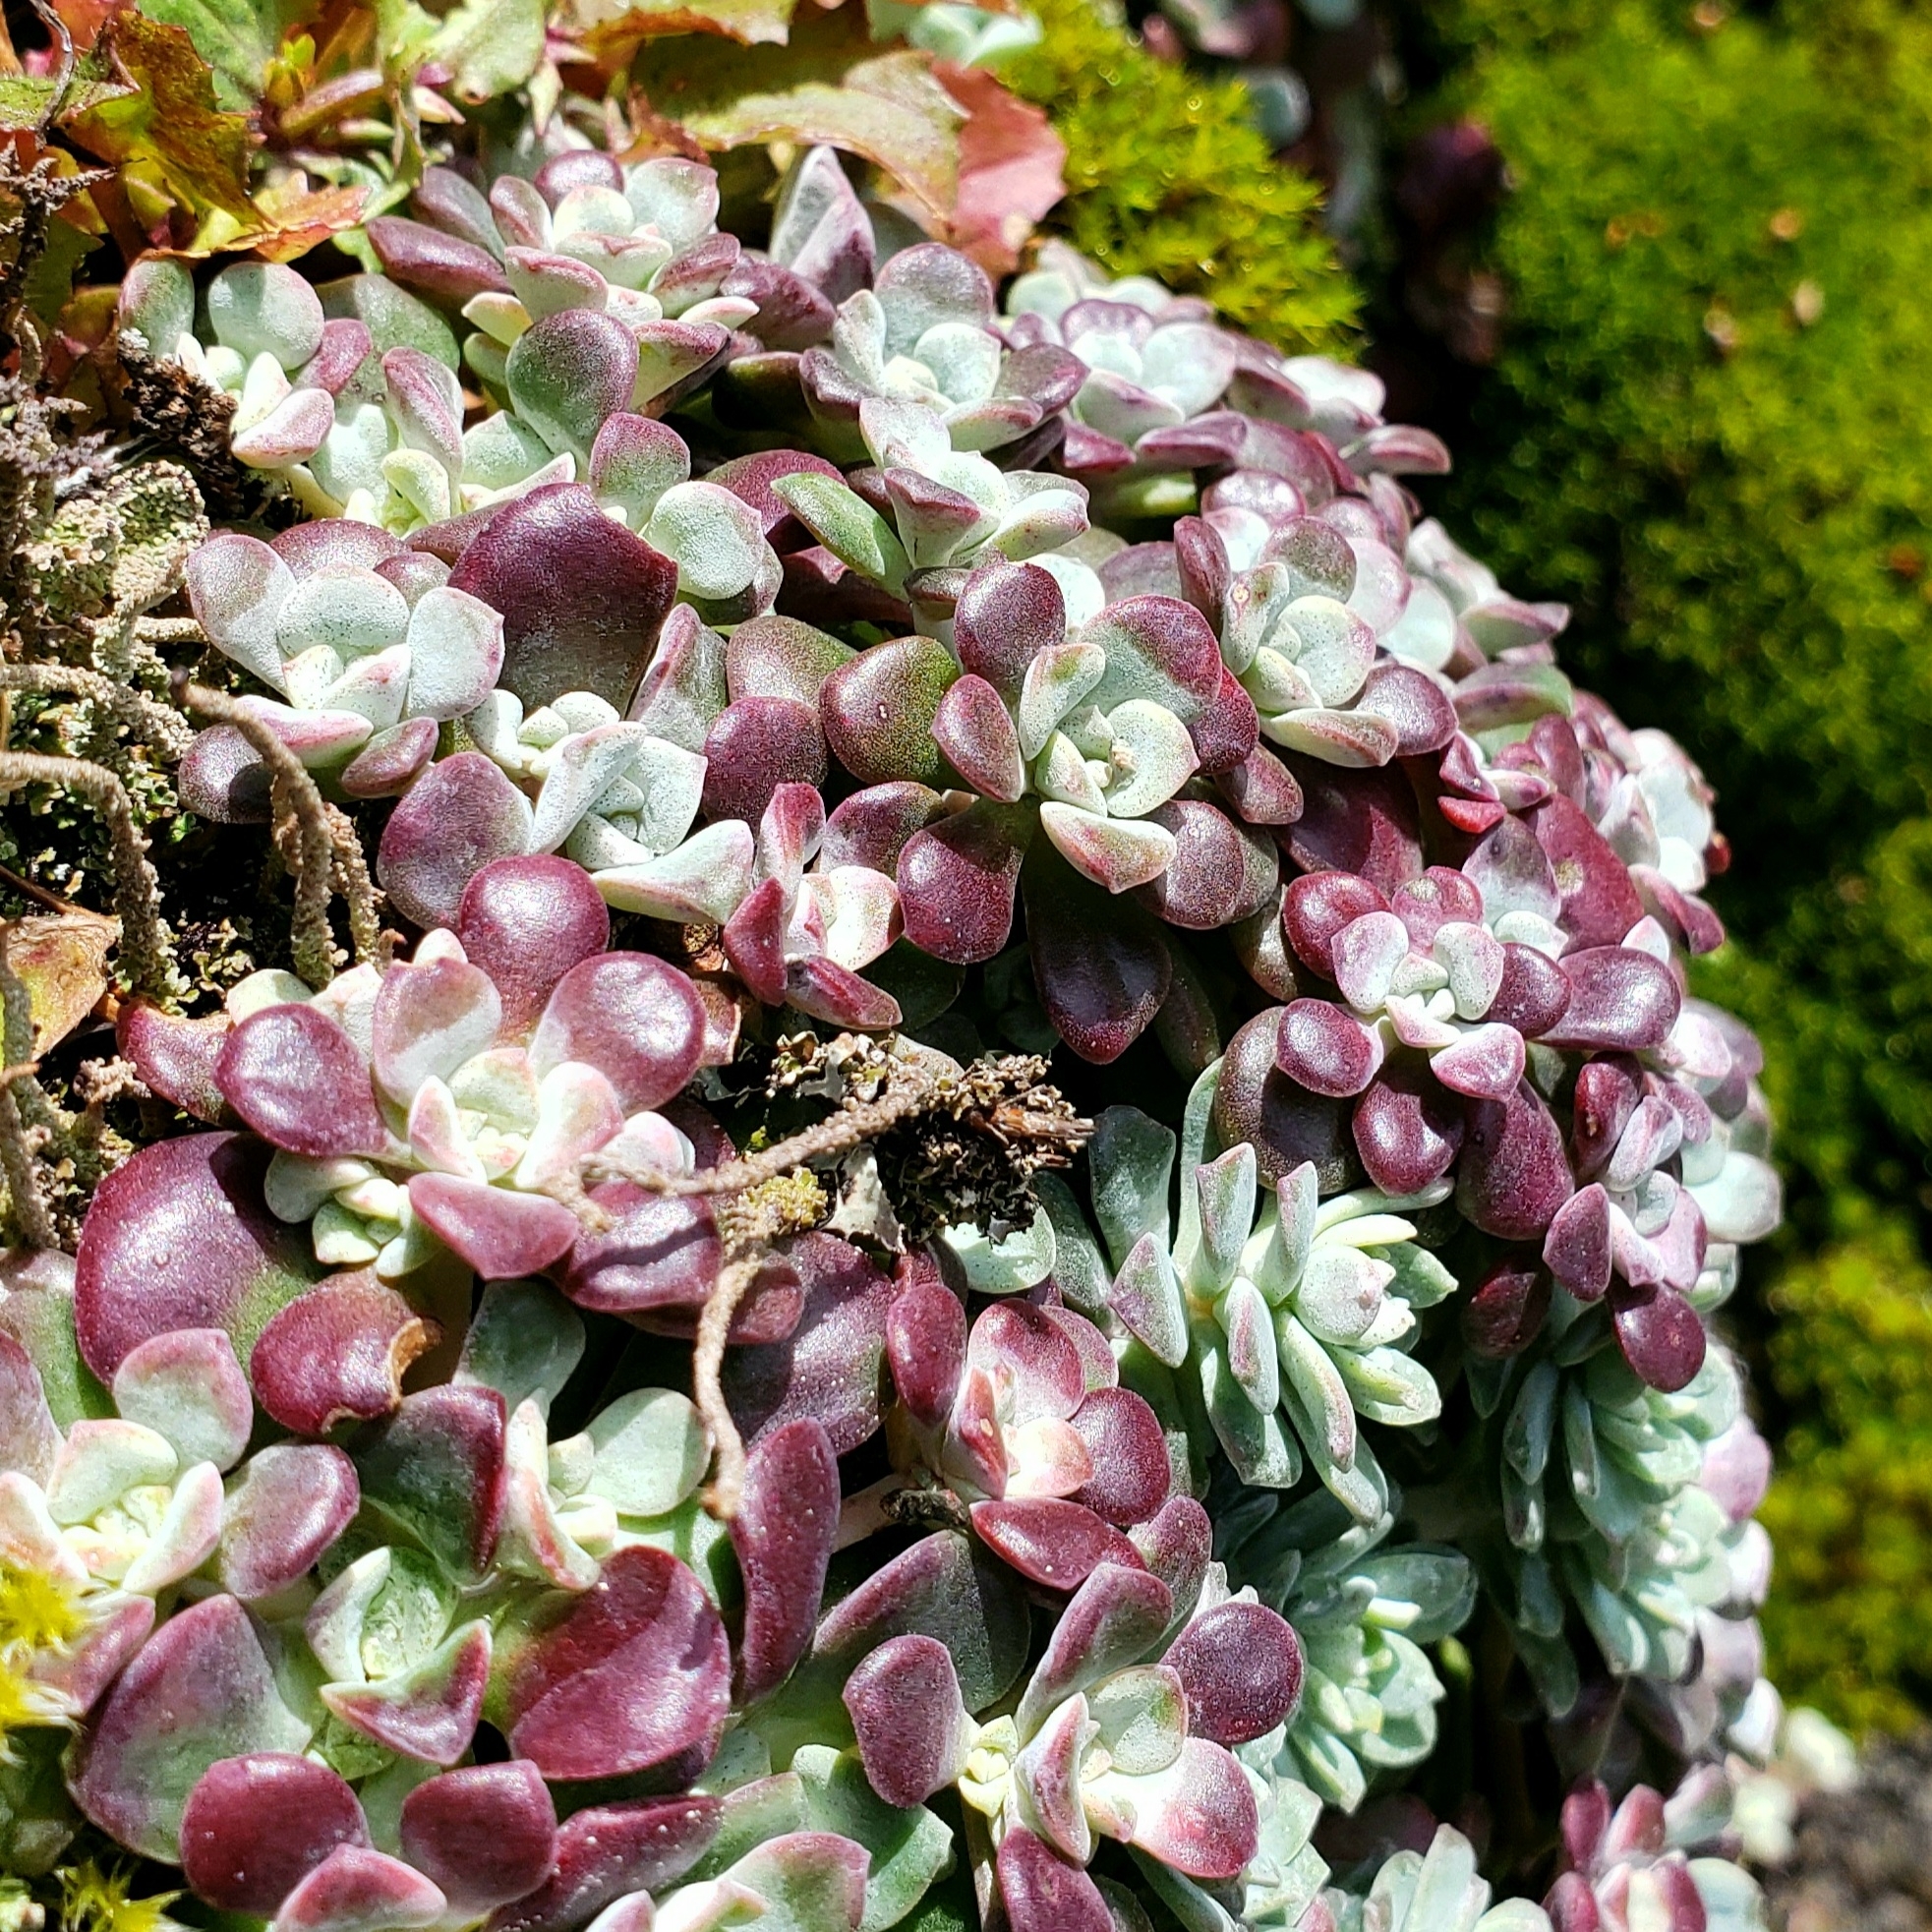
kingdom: Plantae
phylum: Tracheophyta
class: Magnoliopsida
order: Saxifragales
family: Crassulaceae
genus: Sedum
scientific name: Sedum spathulifolium
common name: Colorado stonecrop
